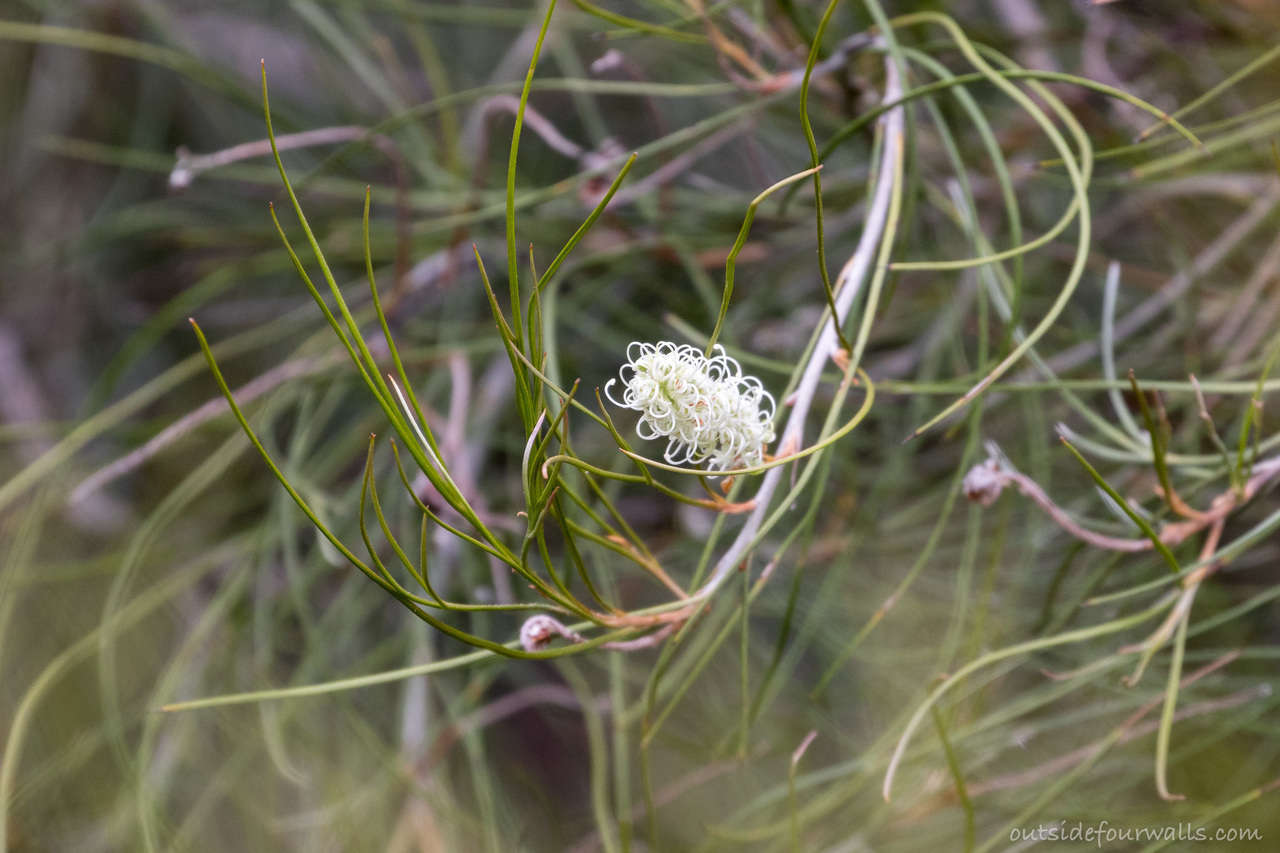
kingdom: Plantae
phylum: Tracheophyta
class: Magnoliopsida
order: Proteales
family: Proteaceae
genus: Grevillea
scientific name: Grevillea pterosperma
